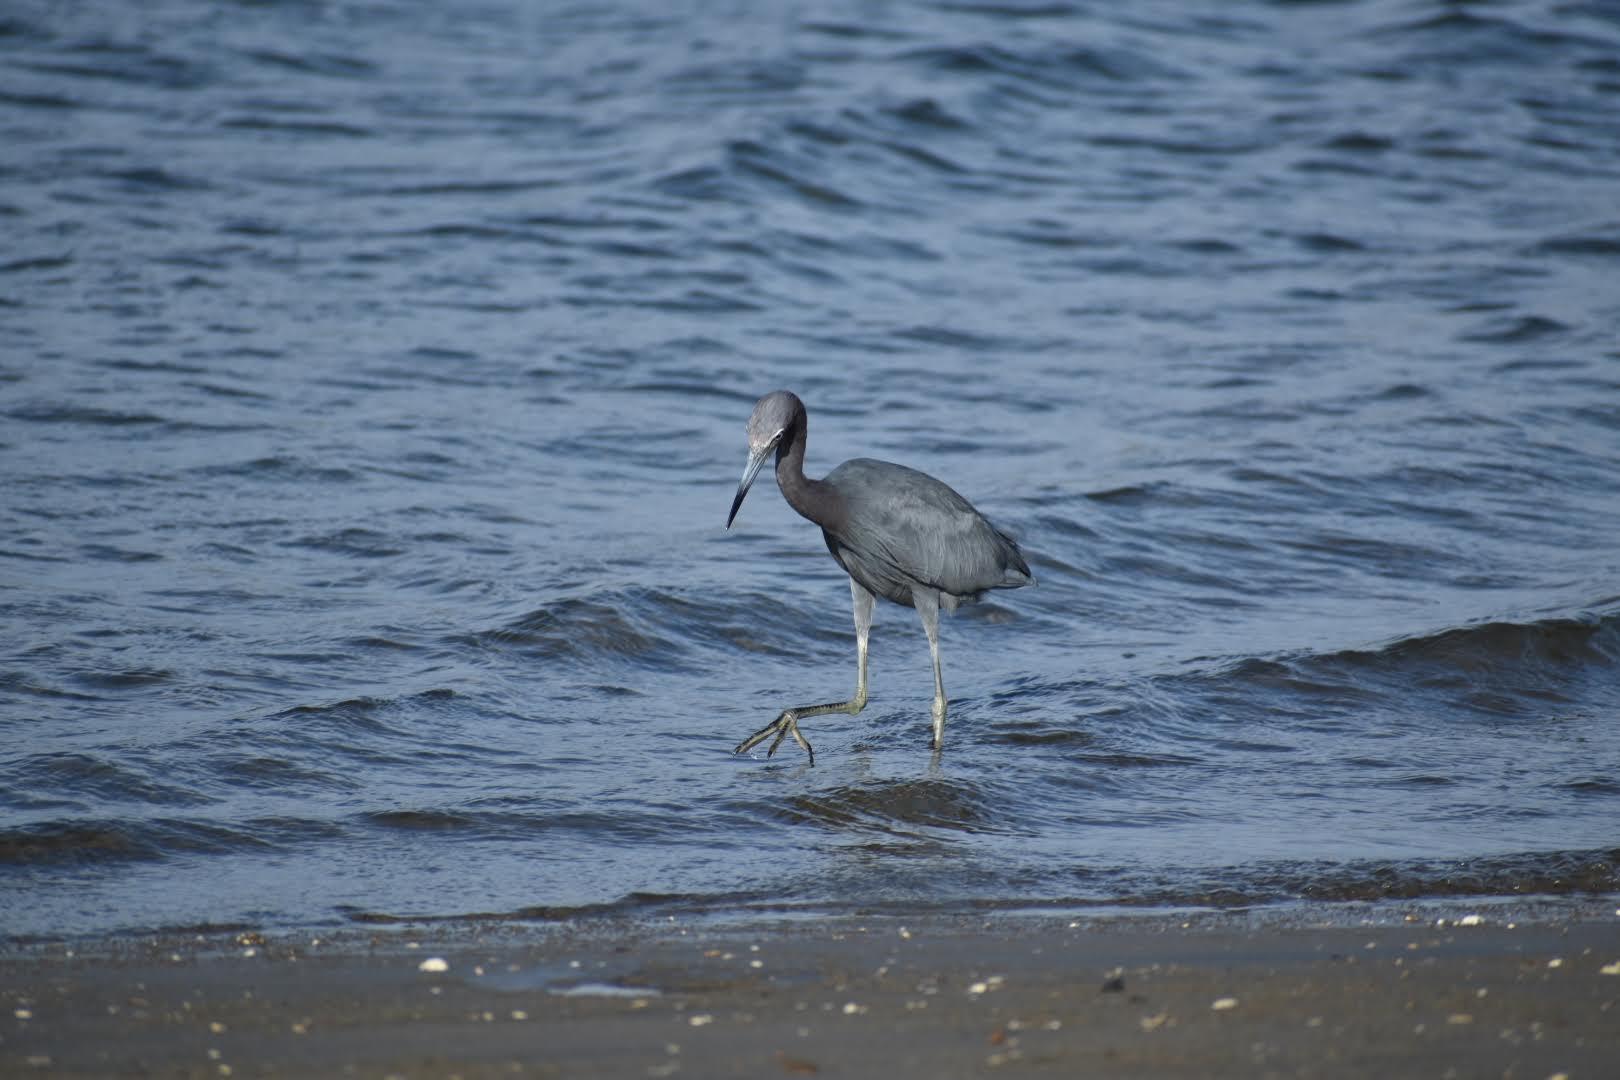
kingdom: Animalia
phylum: Chordata
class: Aves
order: Pelecaniformes
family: Ardeidae
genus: Egretta
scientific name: Egretta caerulea
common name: Little blue heron
